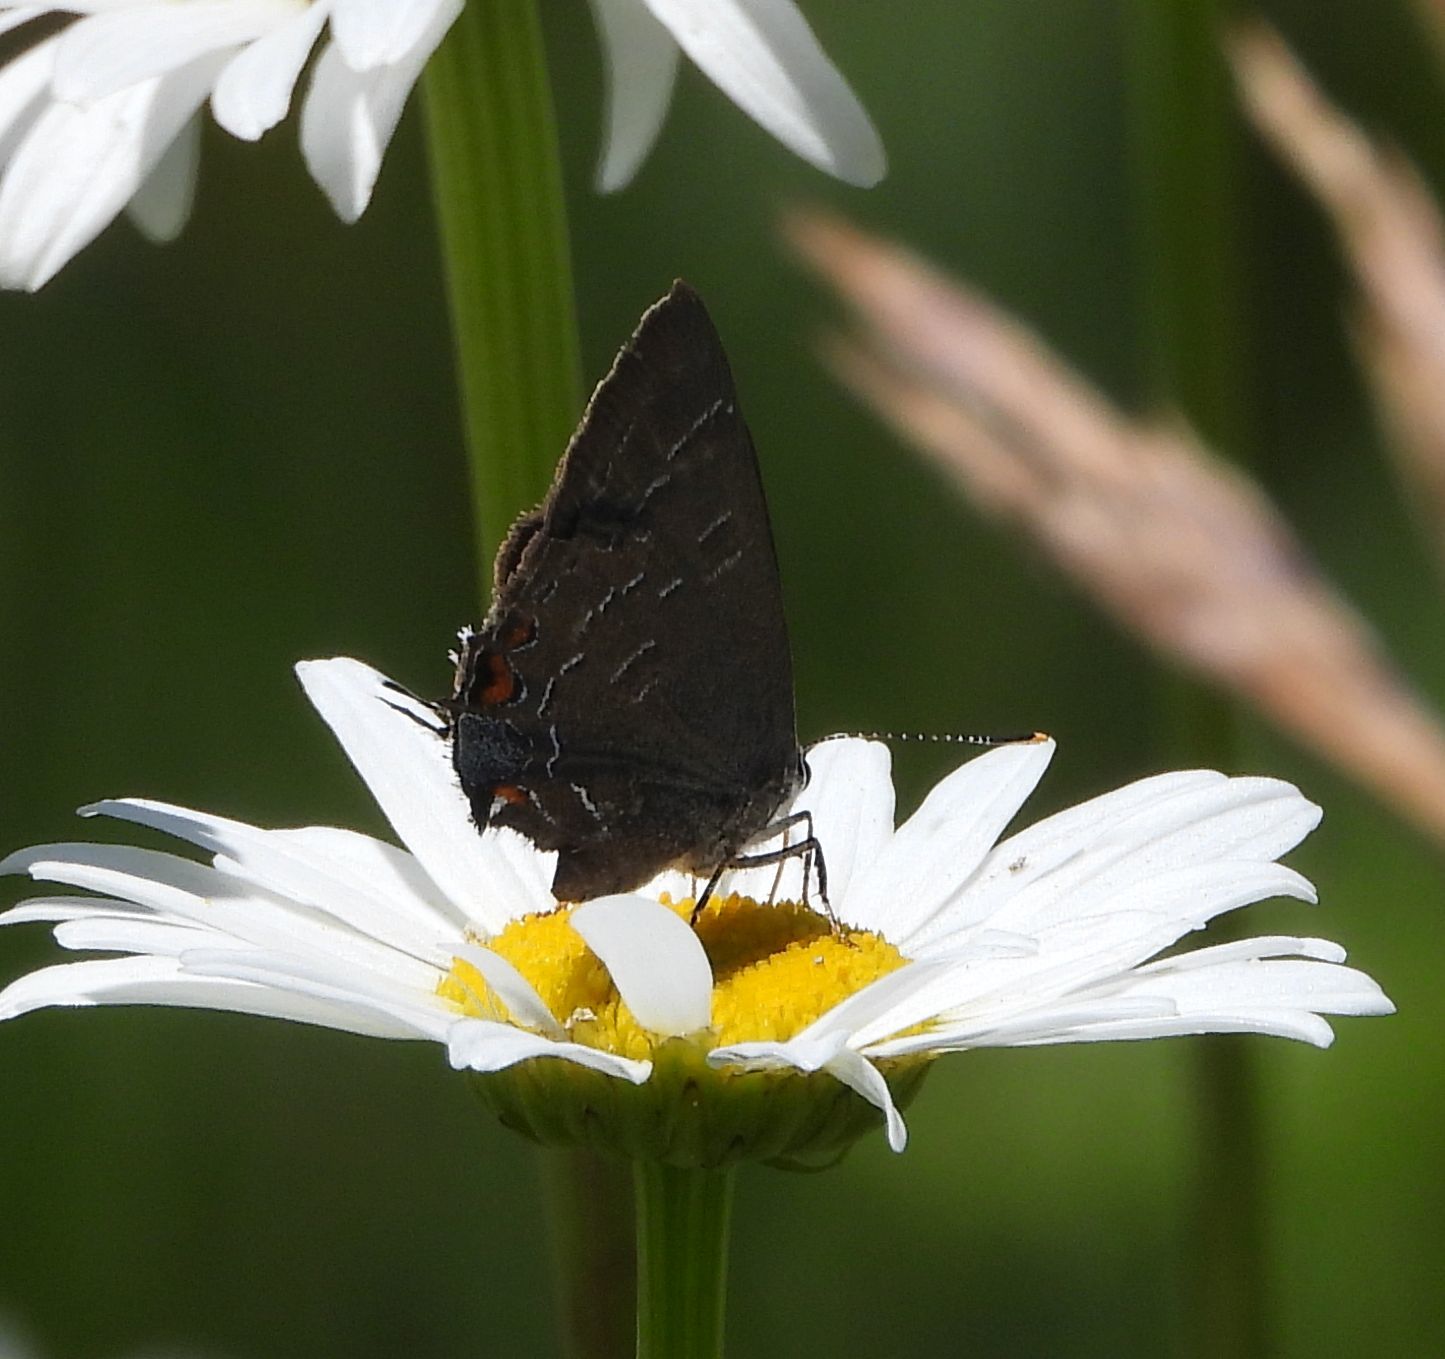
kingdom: Animalia
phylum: Arthropoda
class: Insecta
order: Lepidoptera
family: Lycaenidae
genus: Satyrium
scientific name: Satyrium calanus
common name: Banded hairstreak
